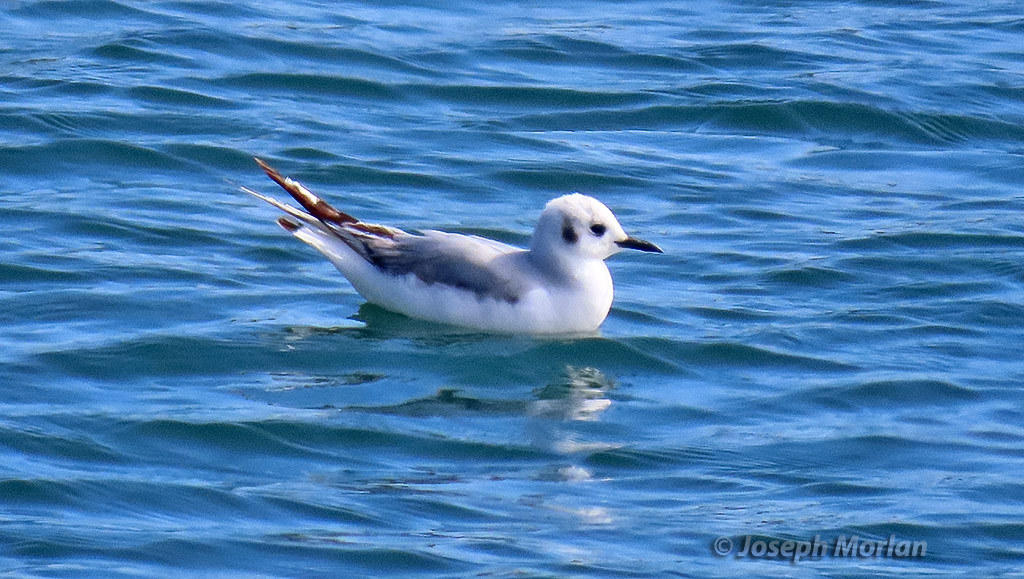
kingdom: Animalia
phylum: Chordata
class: Aves
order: Charadriiformes
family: Laridae
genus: Chroicocephalus
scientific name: Chroicocephalus philadelphia
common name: Bonaparte's gull
